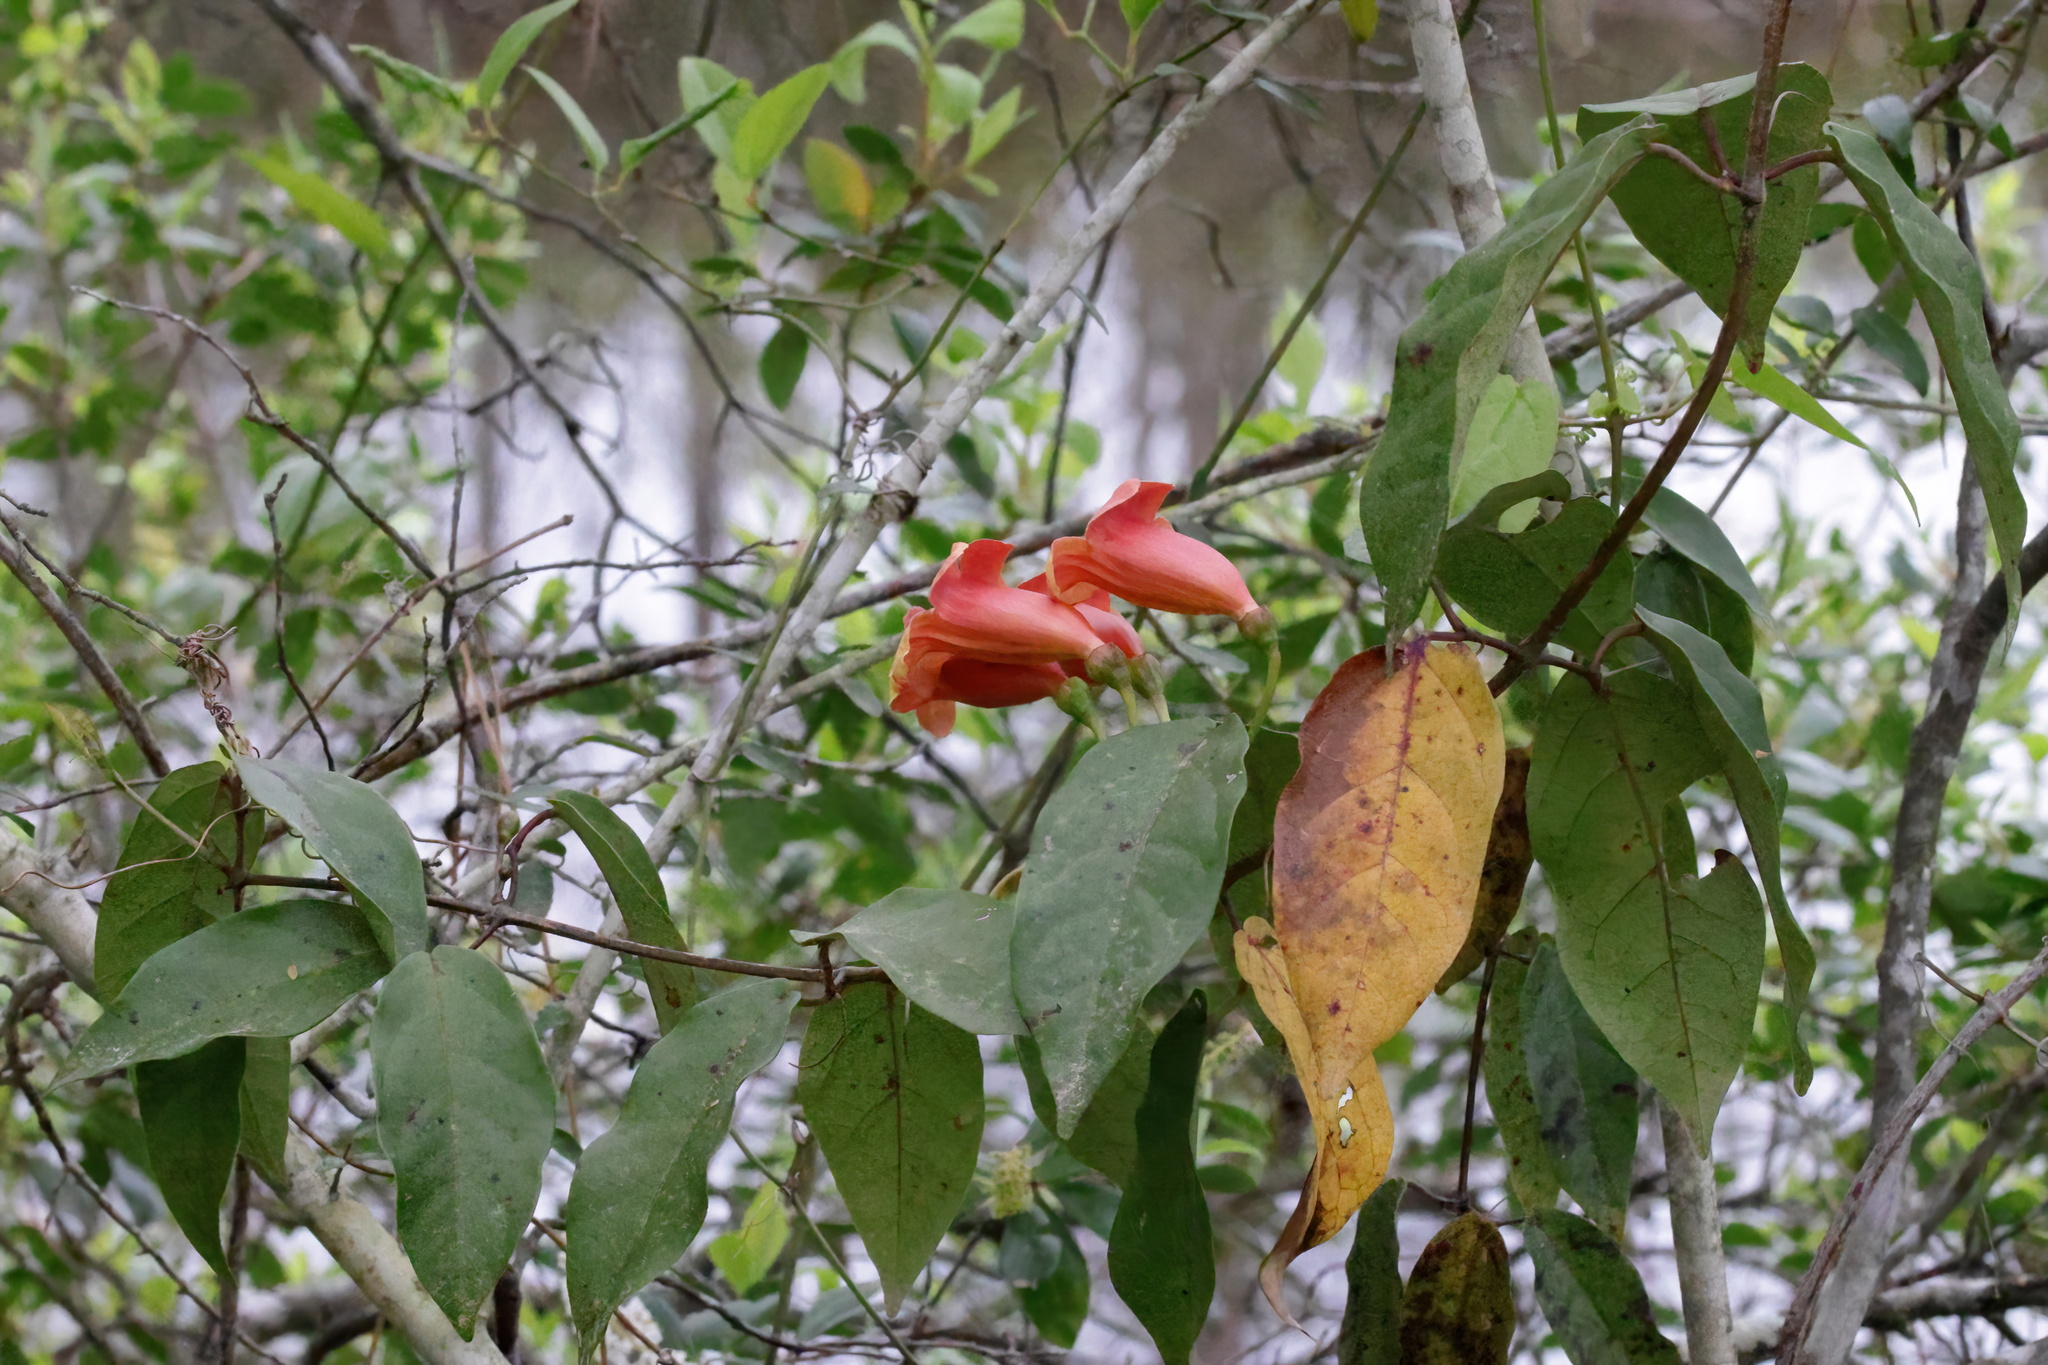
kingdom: Plantae
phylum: Tracheophyta
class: Magnoliopsida
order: Lamiales
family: Bignoniaceae
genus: Bignonia
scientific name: Bignonia capreolata
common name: Crossvine
